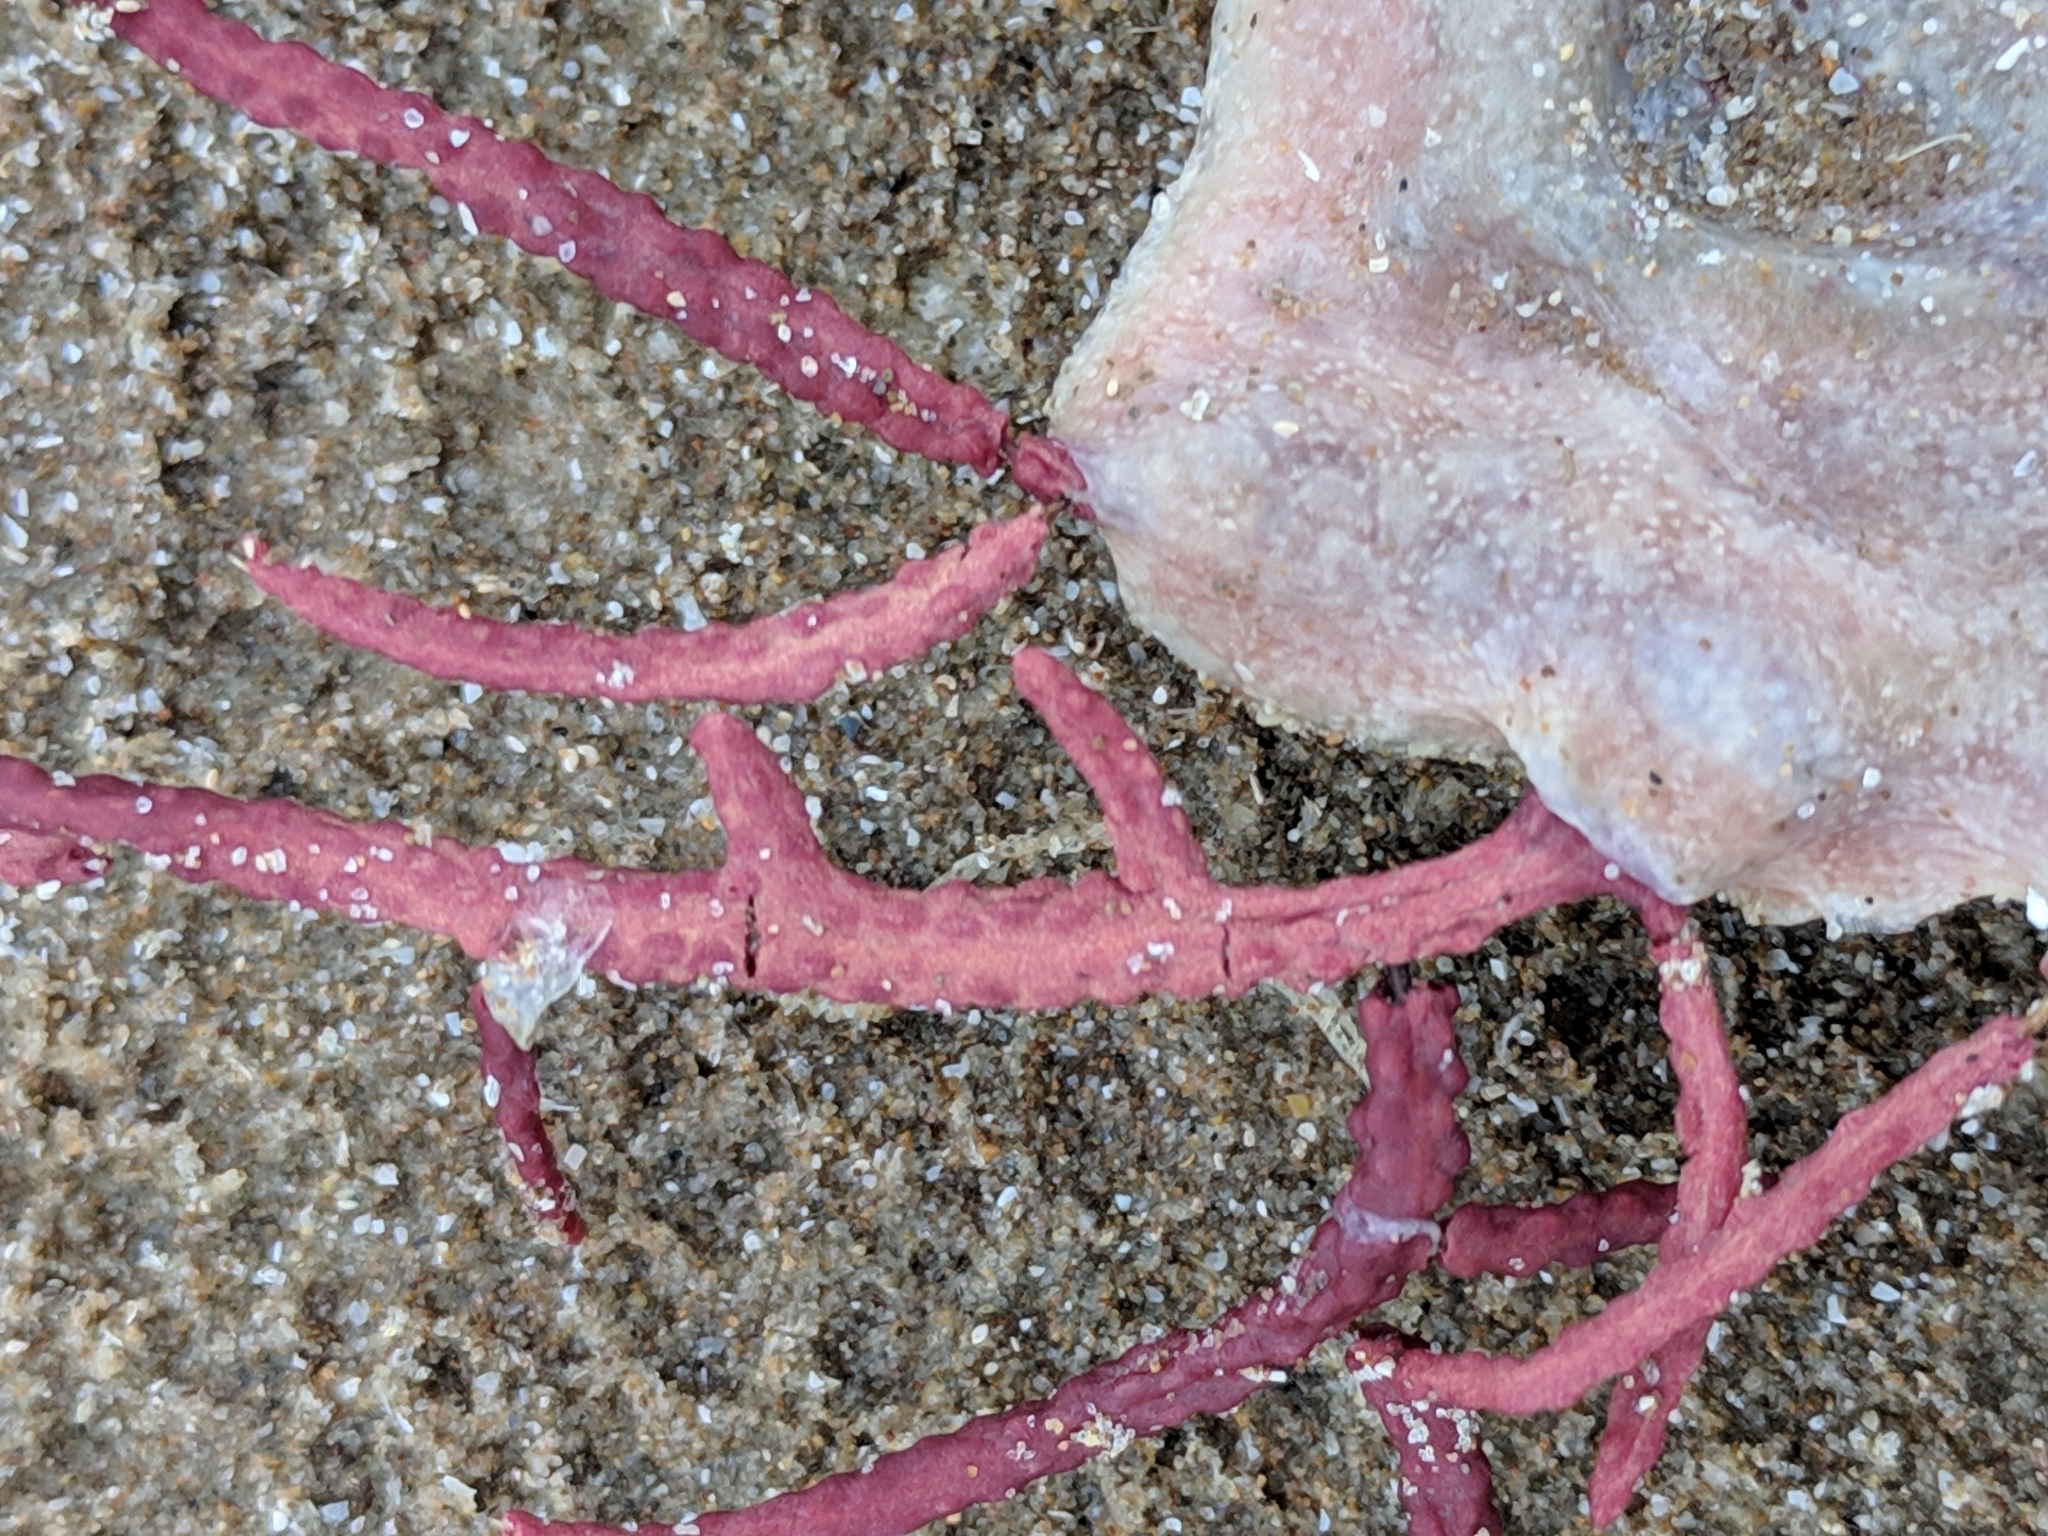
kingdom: Animalia
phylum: Cnidaria
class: Anthozoa
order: Malacalcyonacea
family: Gorgoniidae
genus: Leptogorgia
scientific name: Leptogorgia hebes
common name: Regal sea fan
